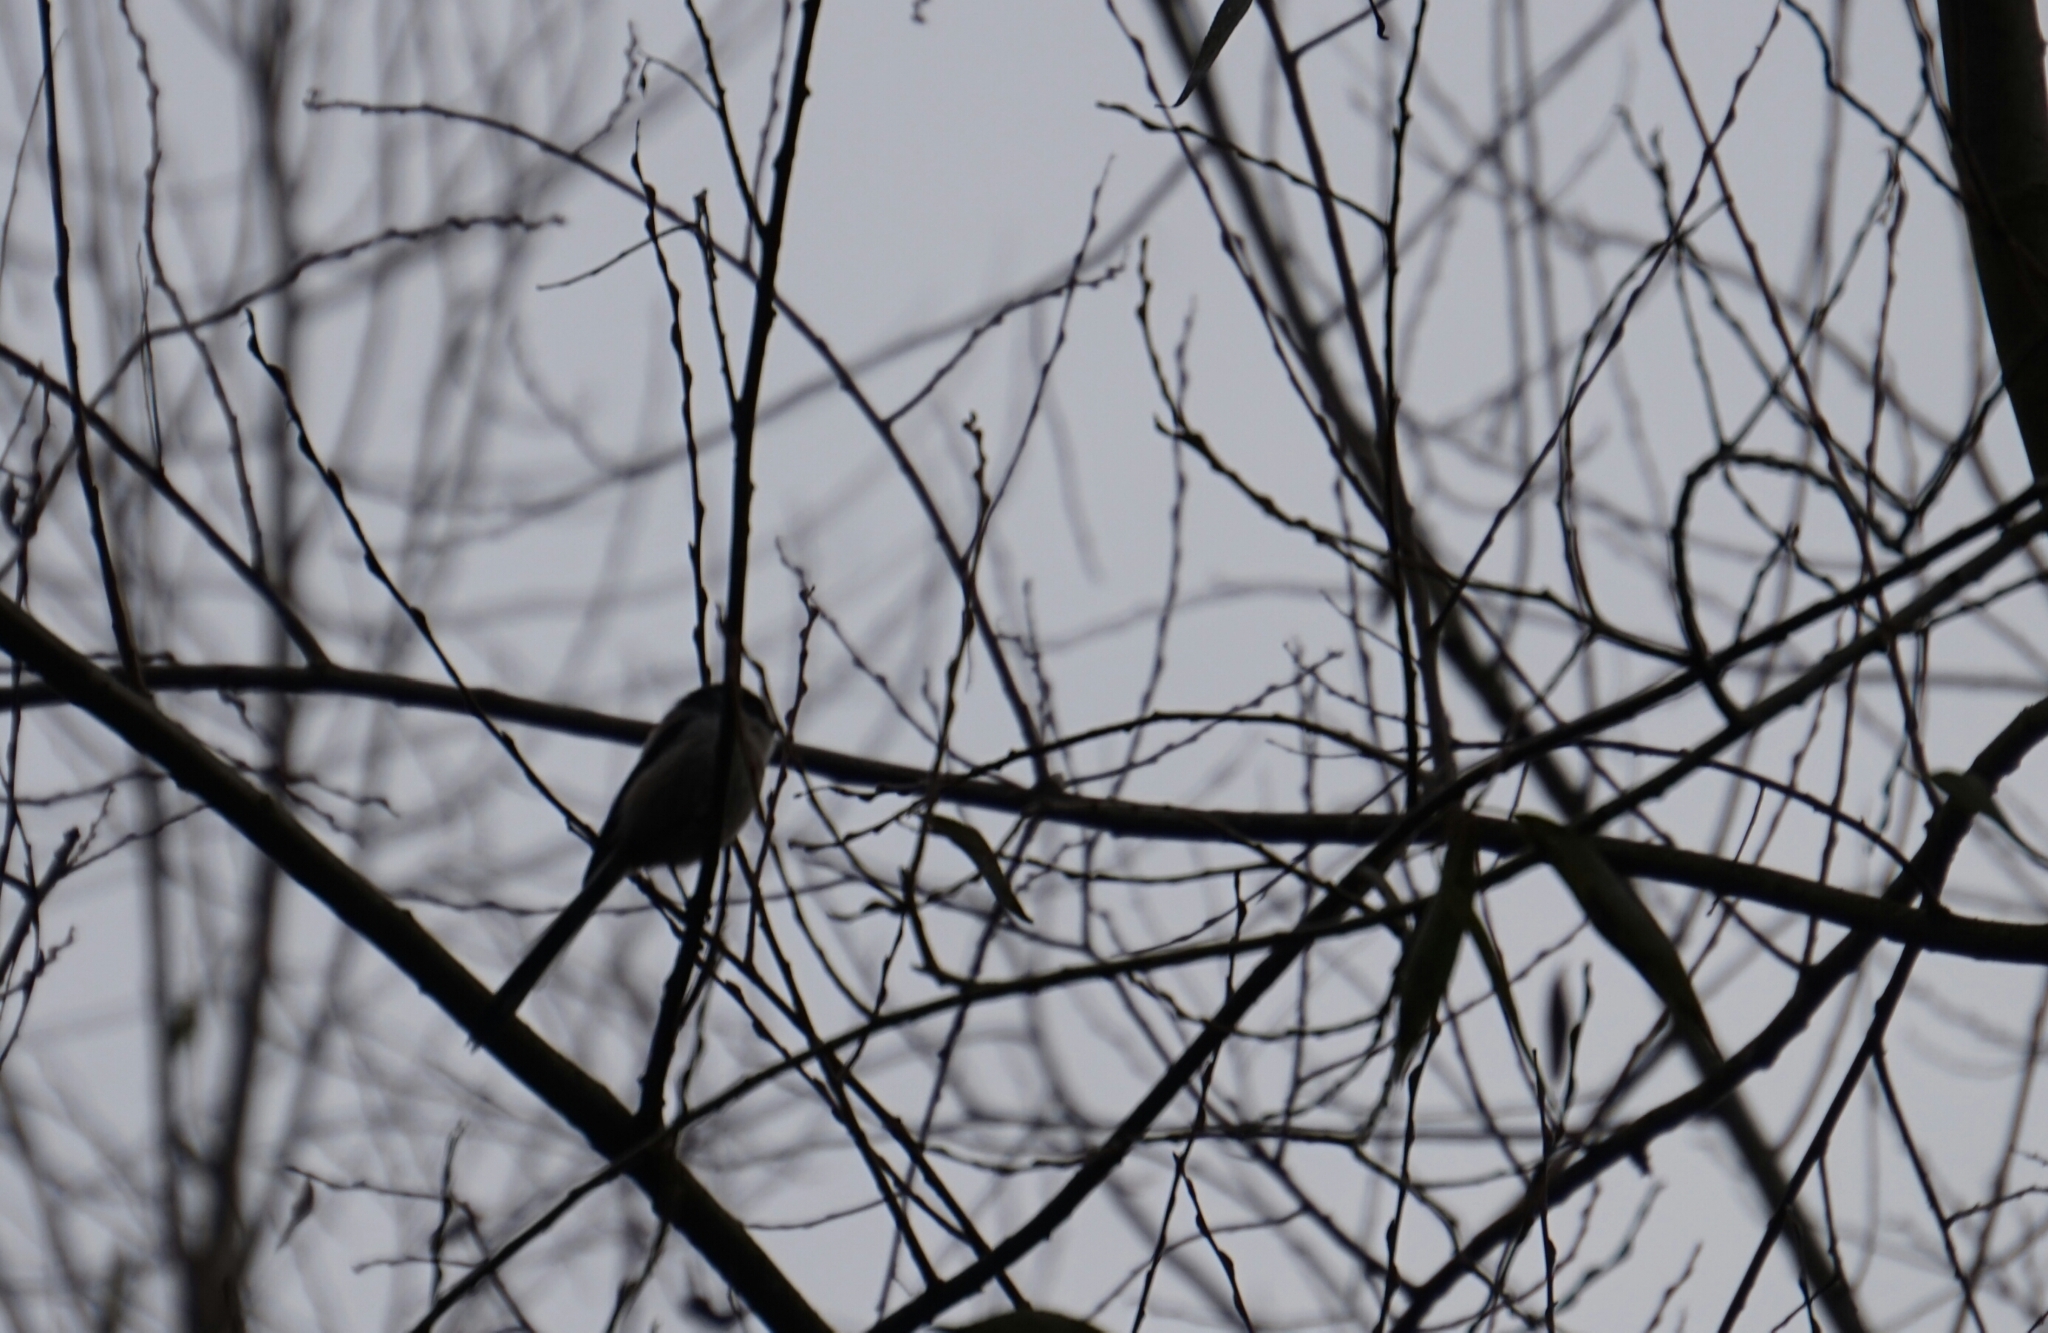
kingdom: Animalia
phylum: Chordata
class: Aves
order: Passeriformes
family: Aegithalidae
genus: Aegithalos
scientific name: Aegithalos caudatus
